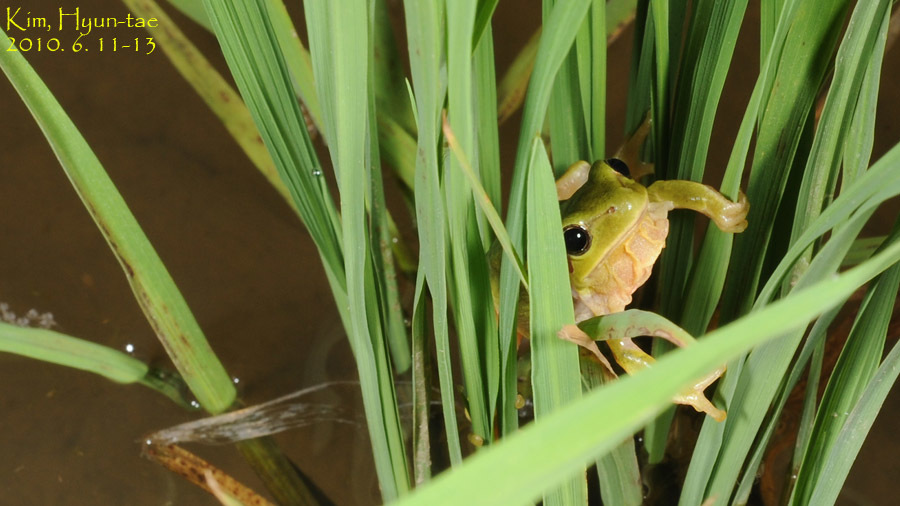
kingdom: Animalia
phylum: Chordata
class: Amphibia
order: Anura
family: Hylidae
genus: Dryophytes
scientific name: Dryophytes immaculatus
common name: North china treefrog
